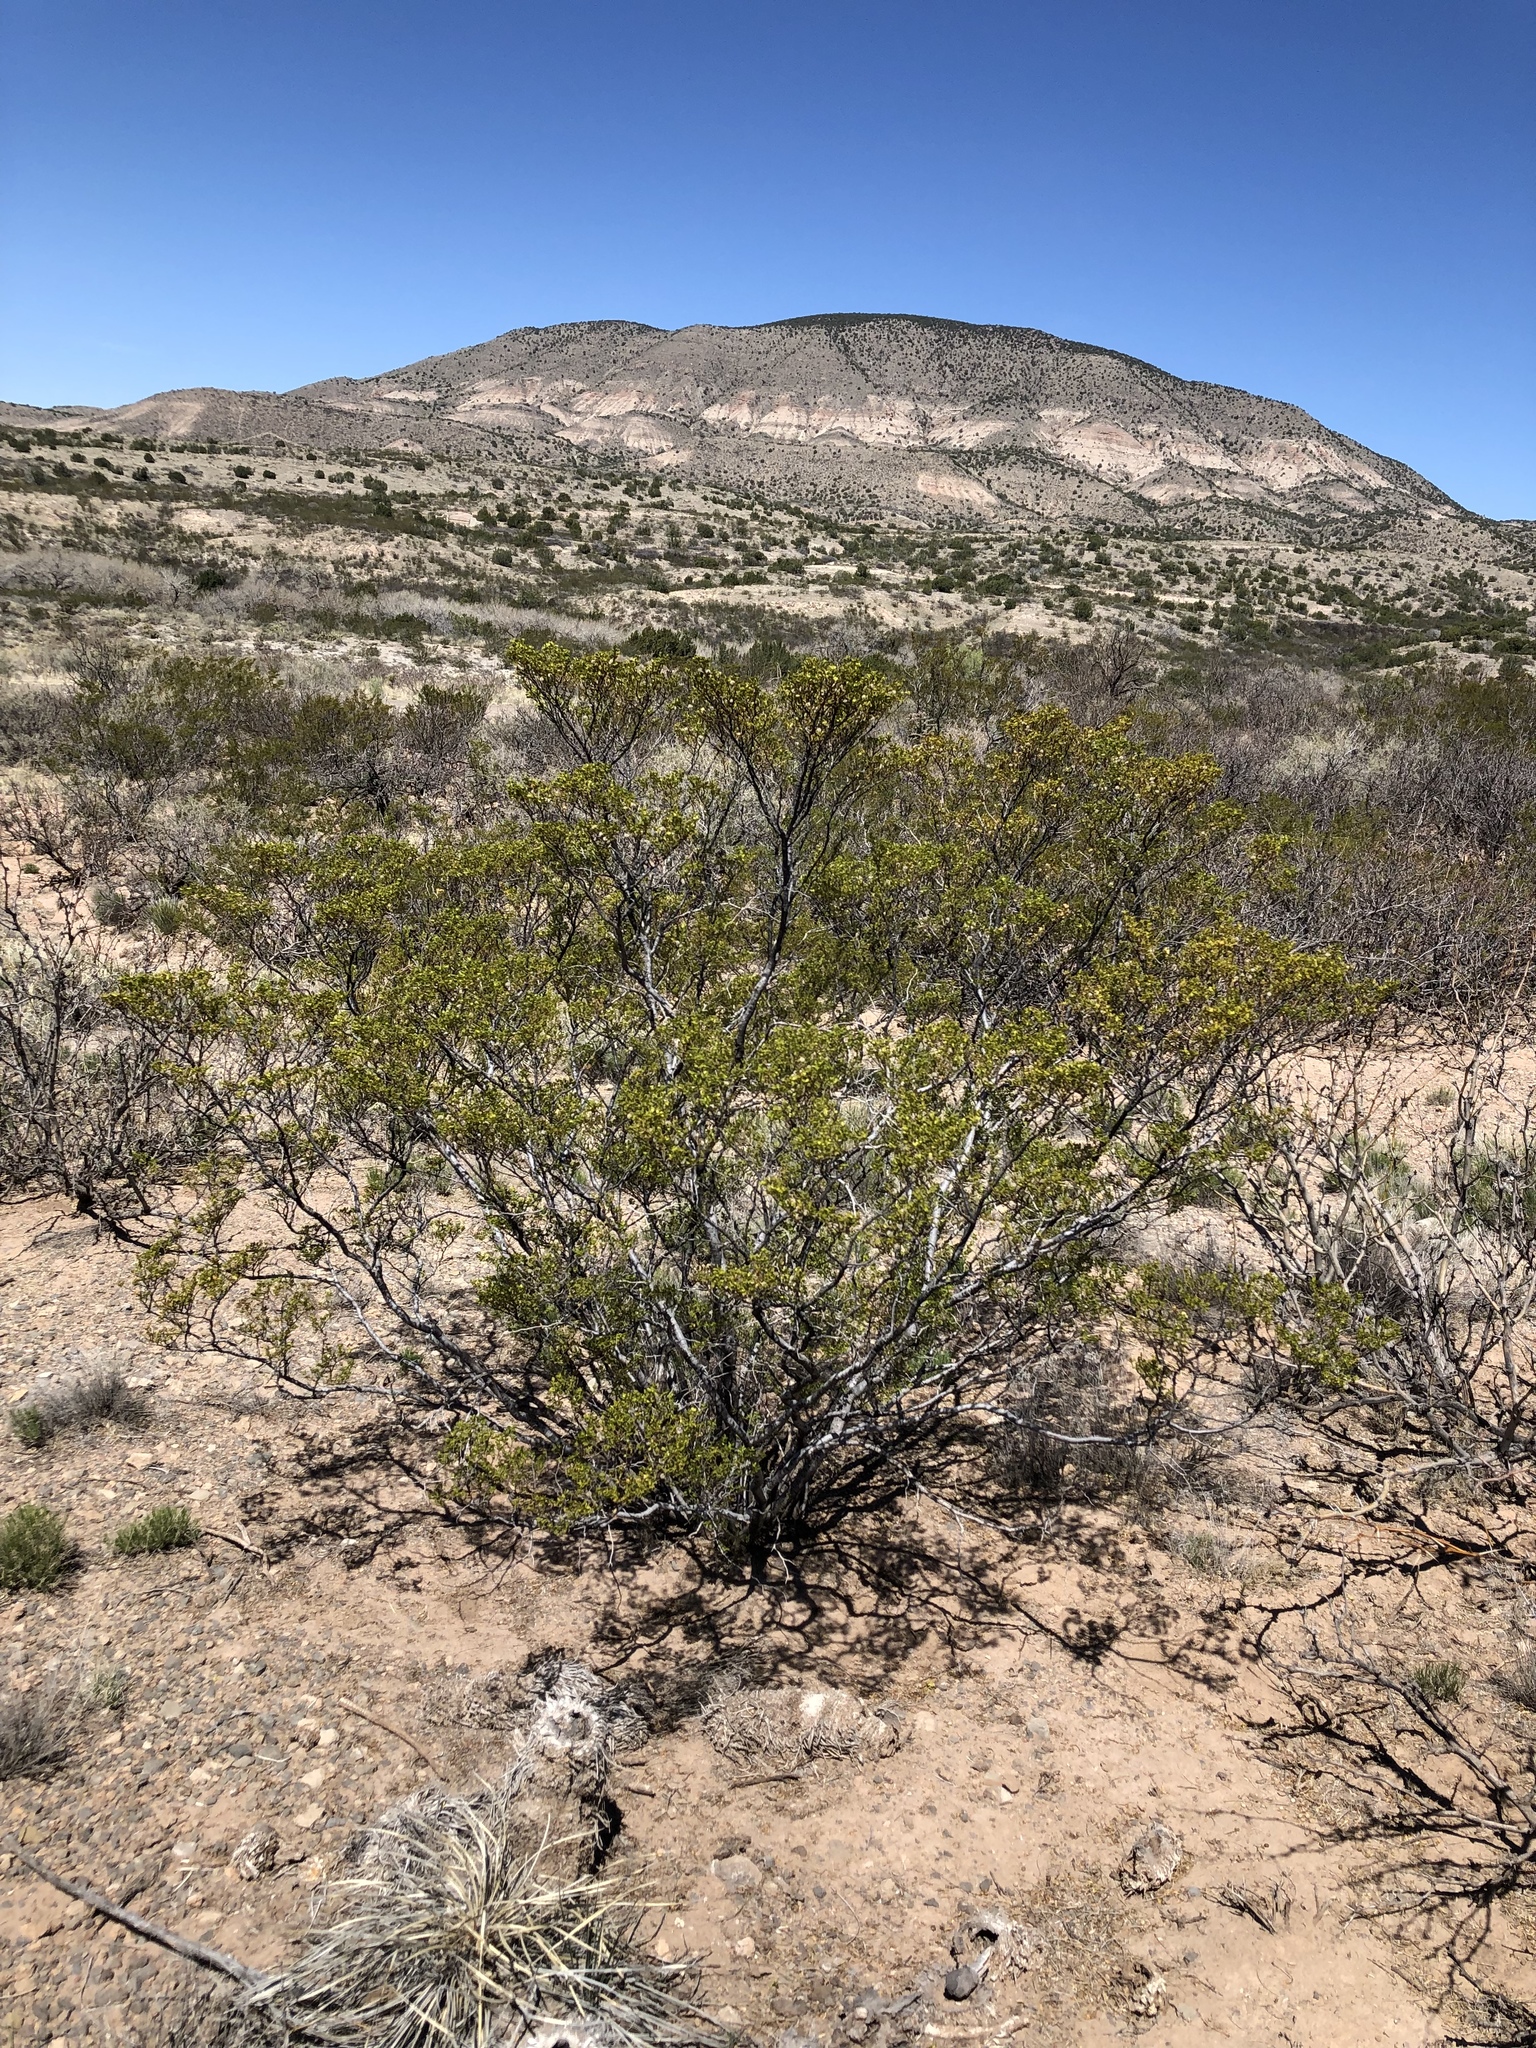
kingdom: Plantae
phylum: Tracheophyta
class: Magnoliopsida
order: Zygophyllales
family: Zygophyllaceae
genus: Larrea
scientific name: Larrea tridentata
